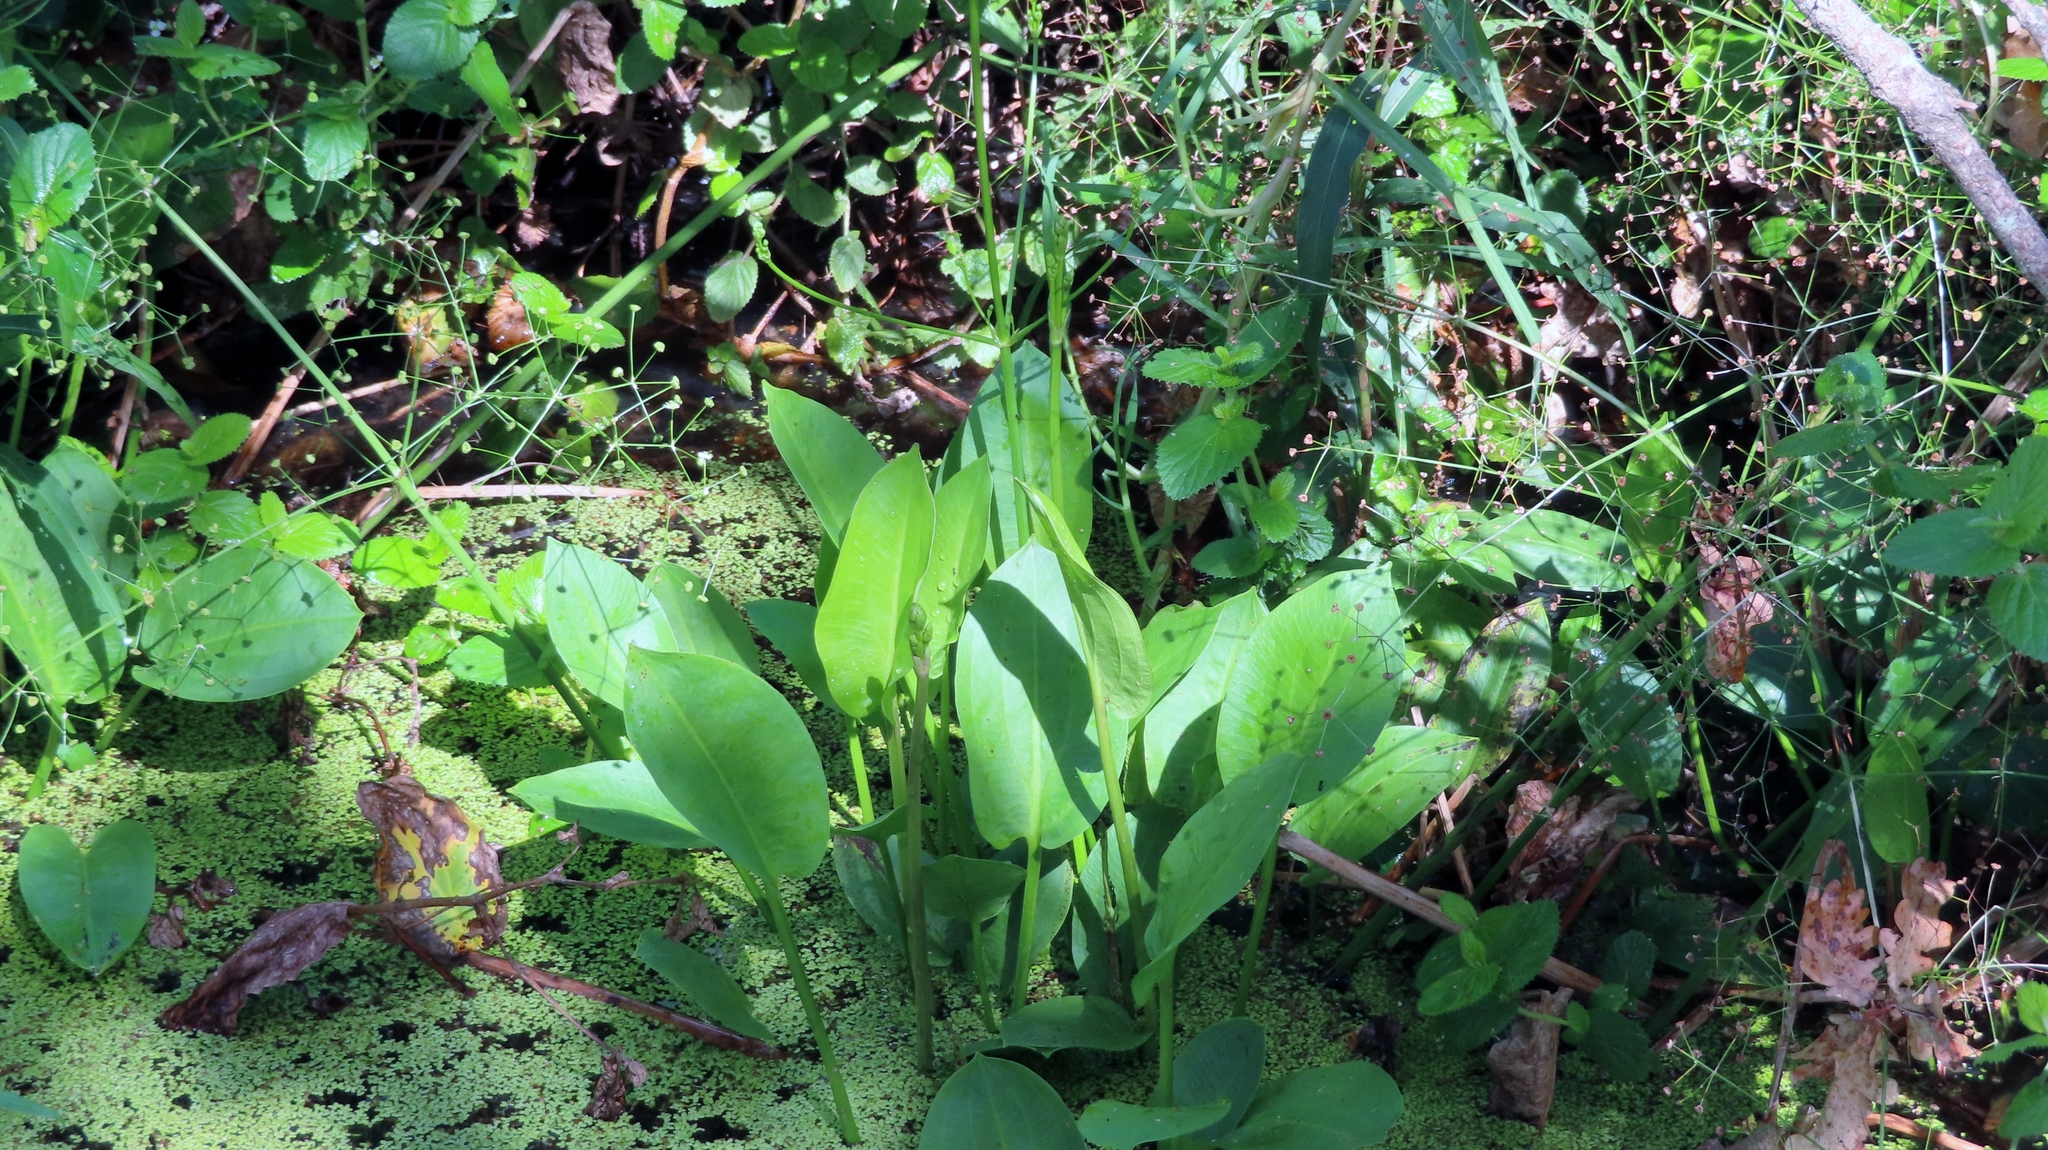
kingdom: Plantae
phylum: Tracheophyta
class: Liliopsida
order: Alismatales
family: Alismataceae
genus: Alisma
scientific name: Alisma plantago-aquatica
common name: Water-plantain
